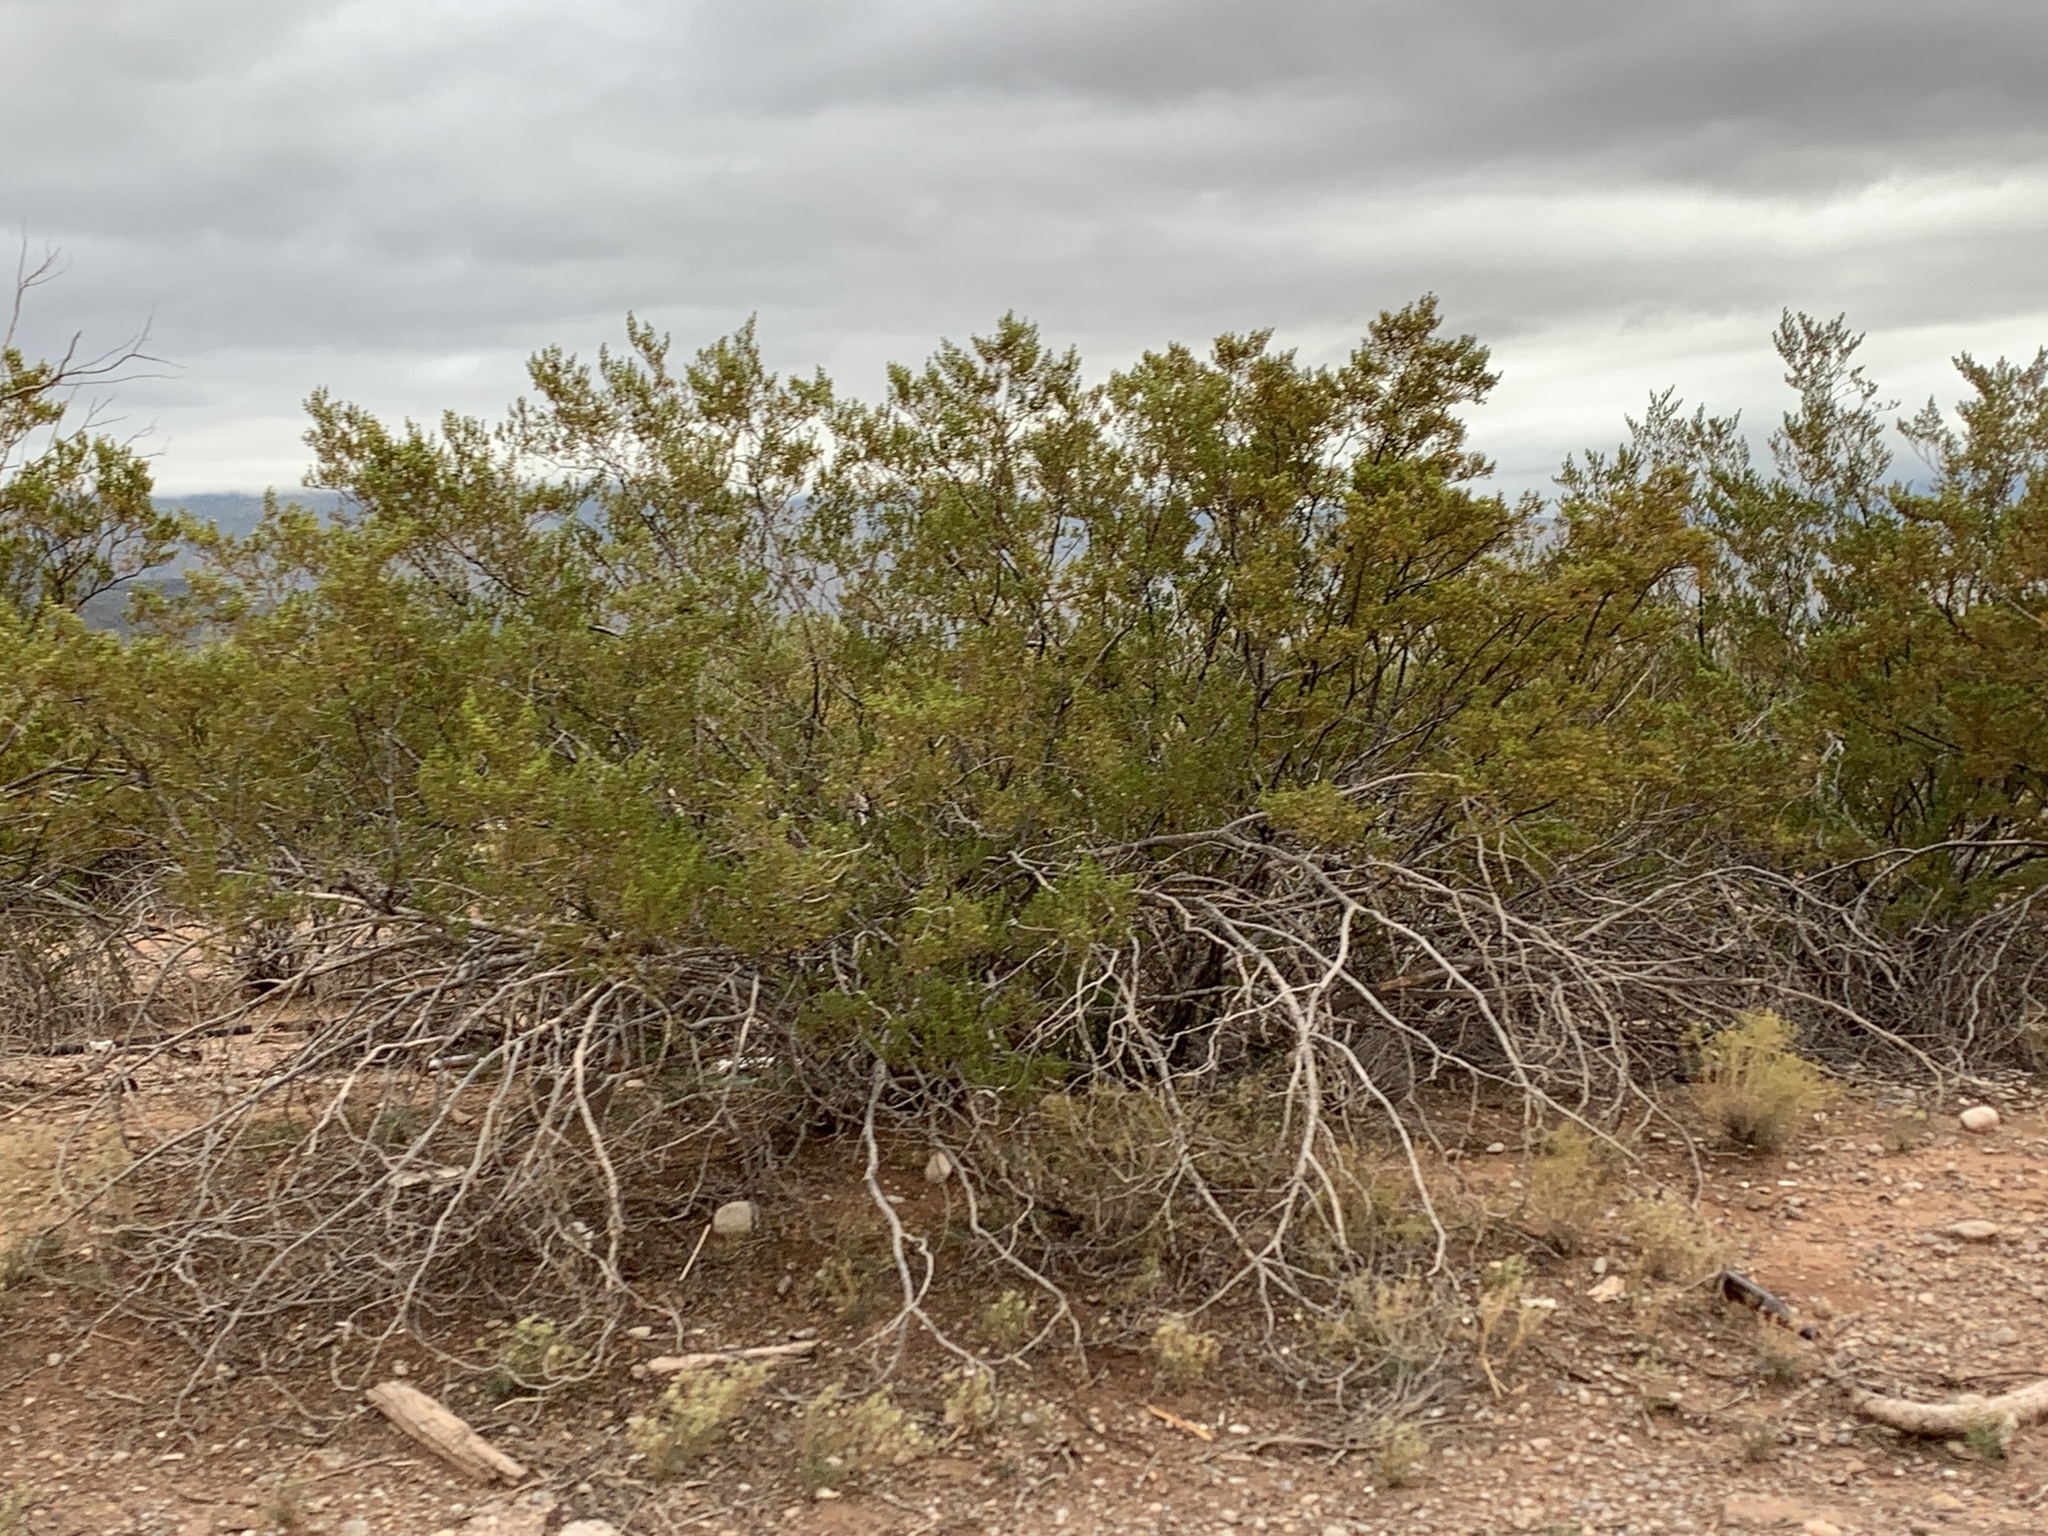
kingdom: Plantae
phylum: Tracheophyta
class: Magnoliopsida
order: Zygophyllales
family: Zygophyllaceae
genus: Larrea
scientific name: Larrea tridentata
